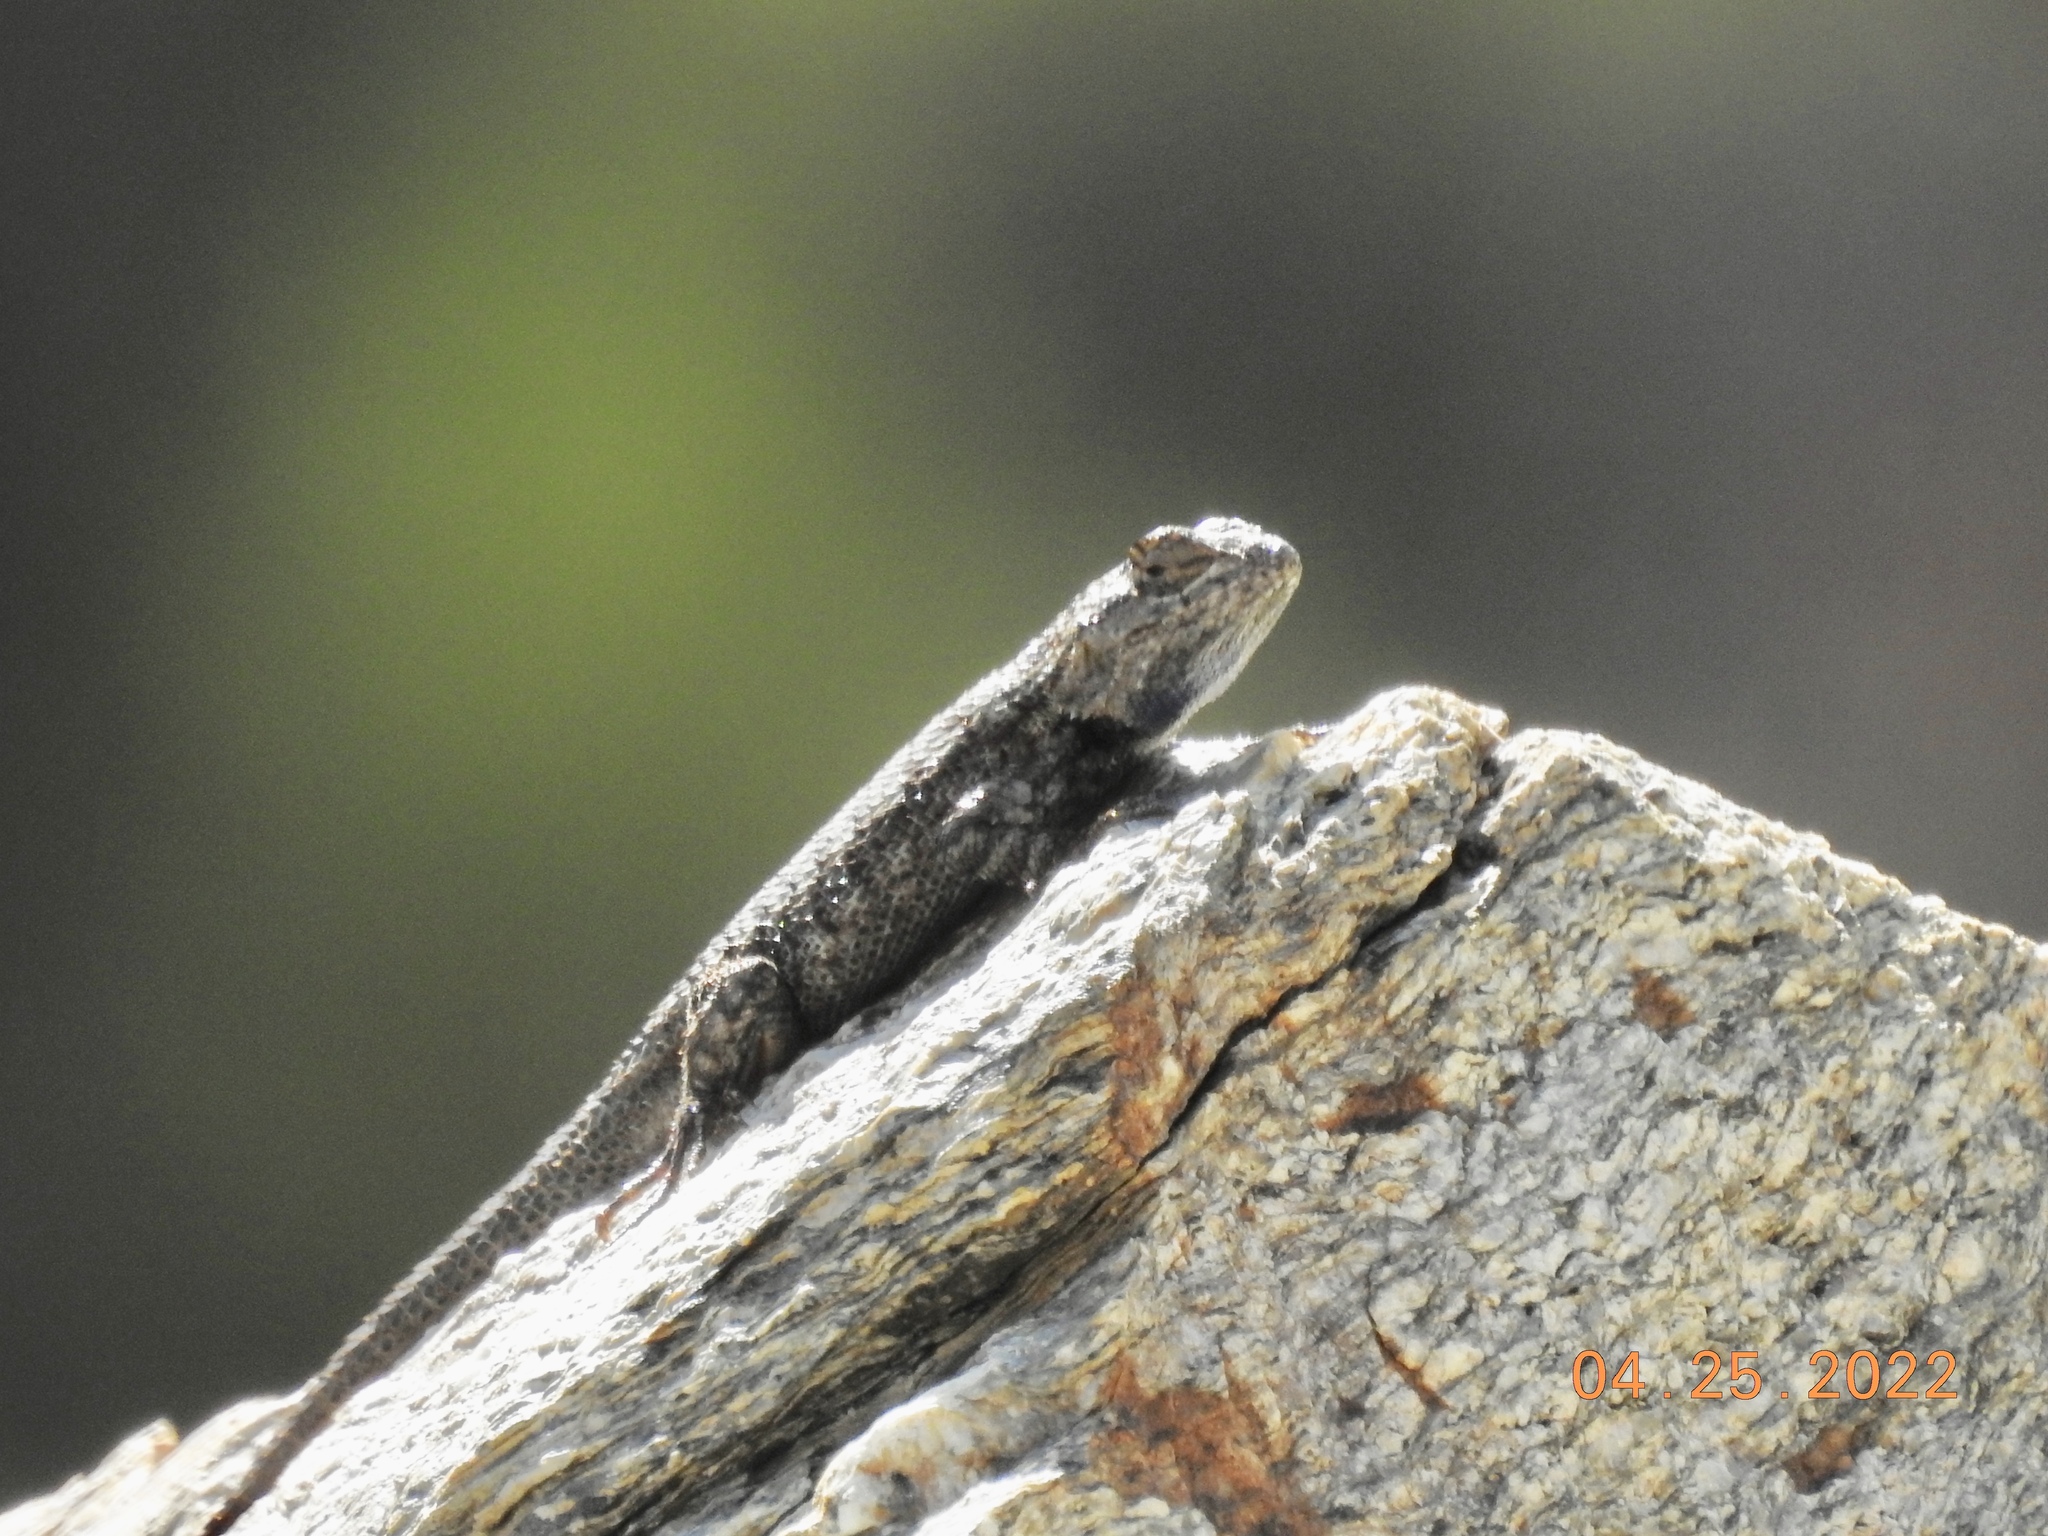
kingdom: Animalia
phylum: Chordata
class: Squamata
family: Phrynosomatidae
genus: Sceloporus
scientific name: Sceloporus occidentalis
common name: Western fence lizard
